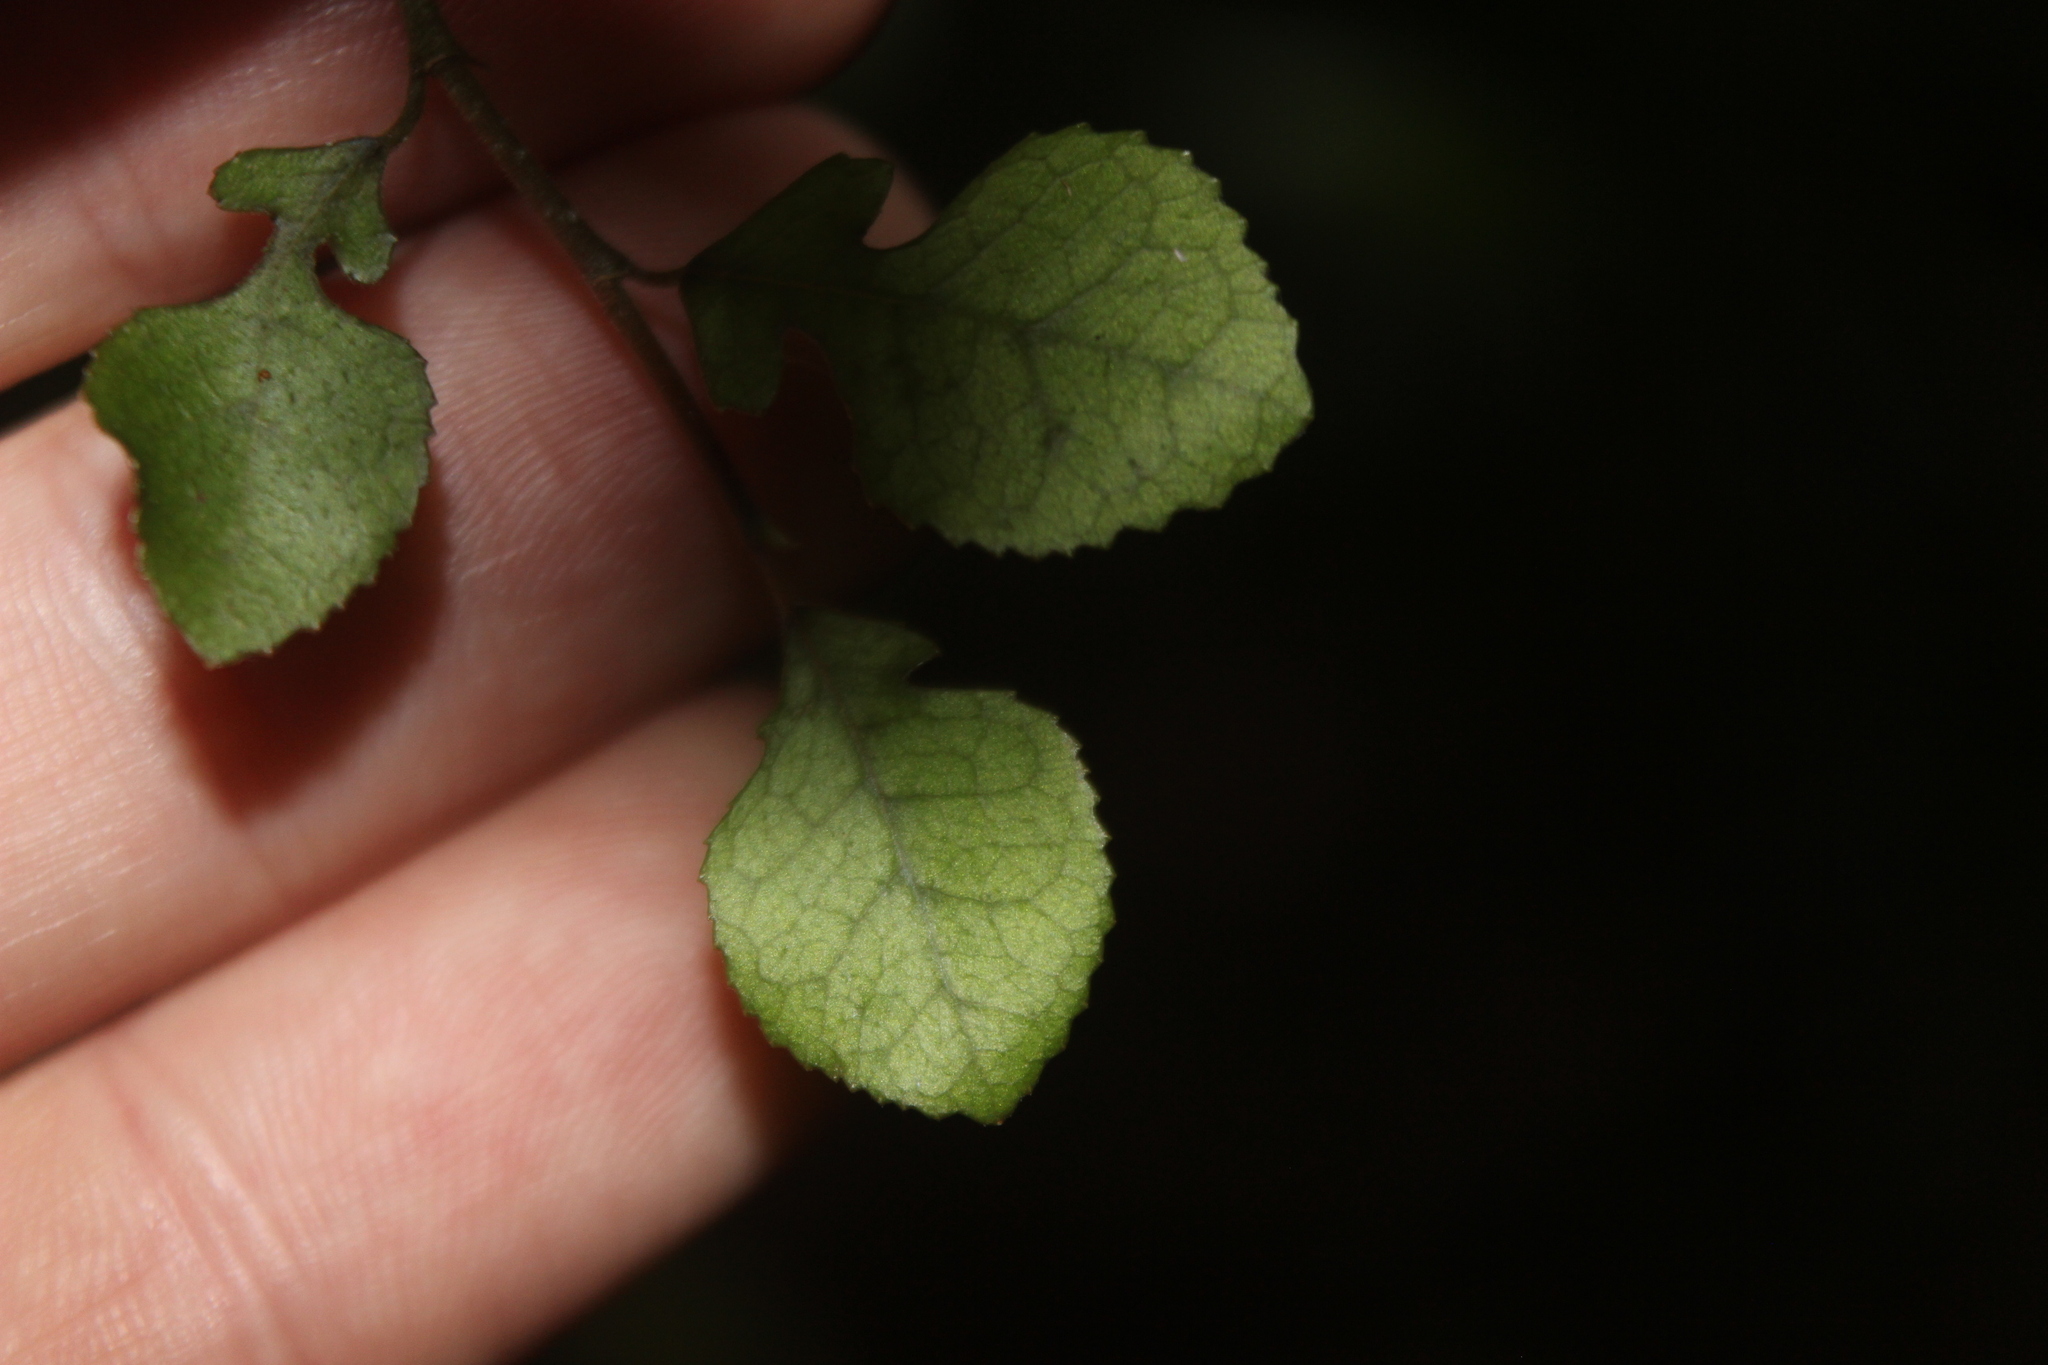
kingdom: Plantae
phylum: Tracheophyta
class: Magnoliopsida
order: Rosales
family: Moraceae
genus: Paratrophis
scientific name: Paratrophis microphylla
